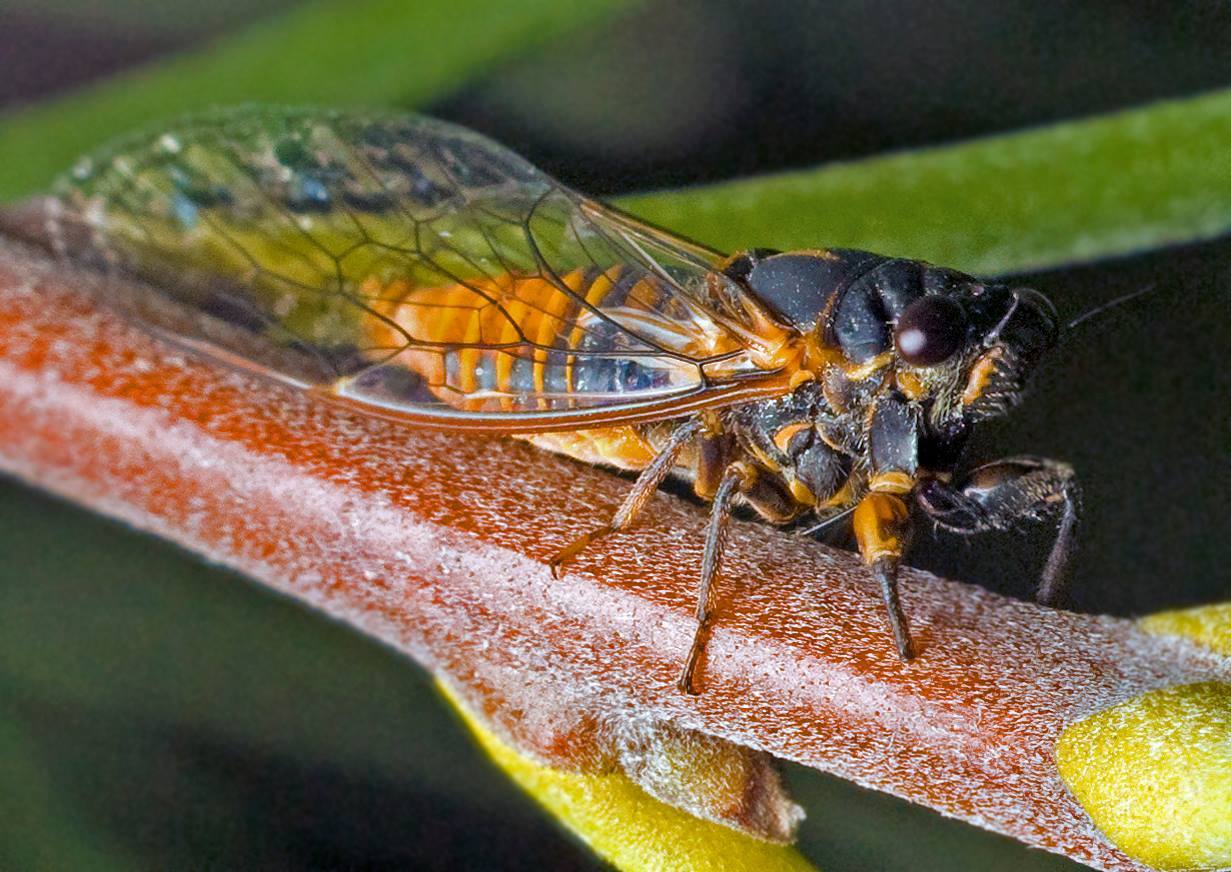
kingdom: Animalia
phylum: Arthropoda
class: Insecta
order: Hemiptera
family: Cicadidae
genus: Plerapsalta
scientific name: Plerapsalta incipiens
